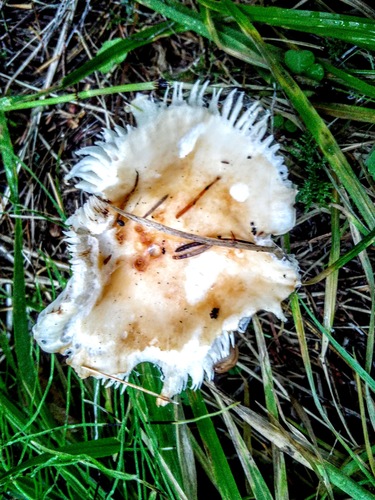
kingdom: Fungi
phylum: Basidiomycota
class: Agaricomycetes
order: Russulales
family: Russulaceae
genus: Russula
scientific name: Russula
